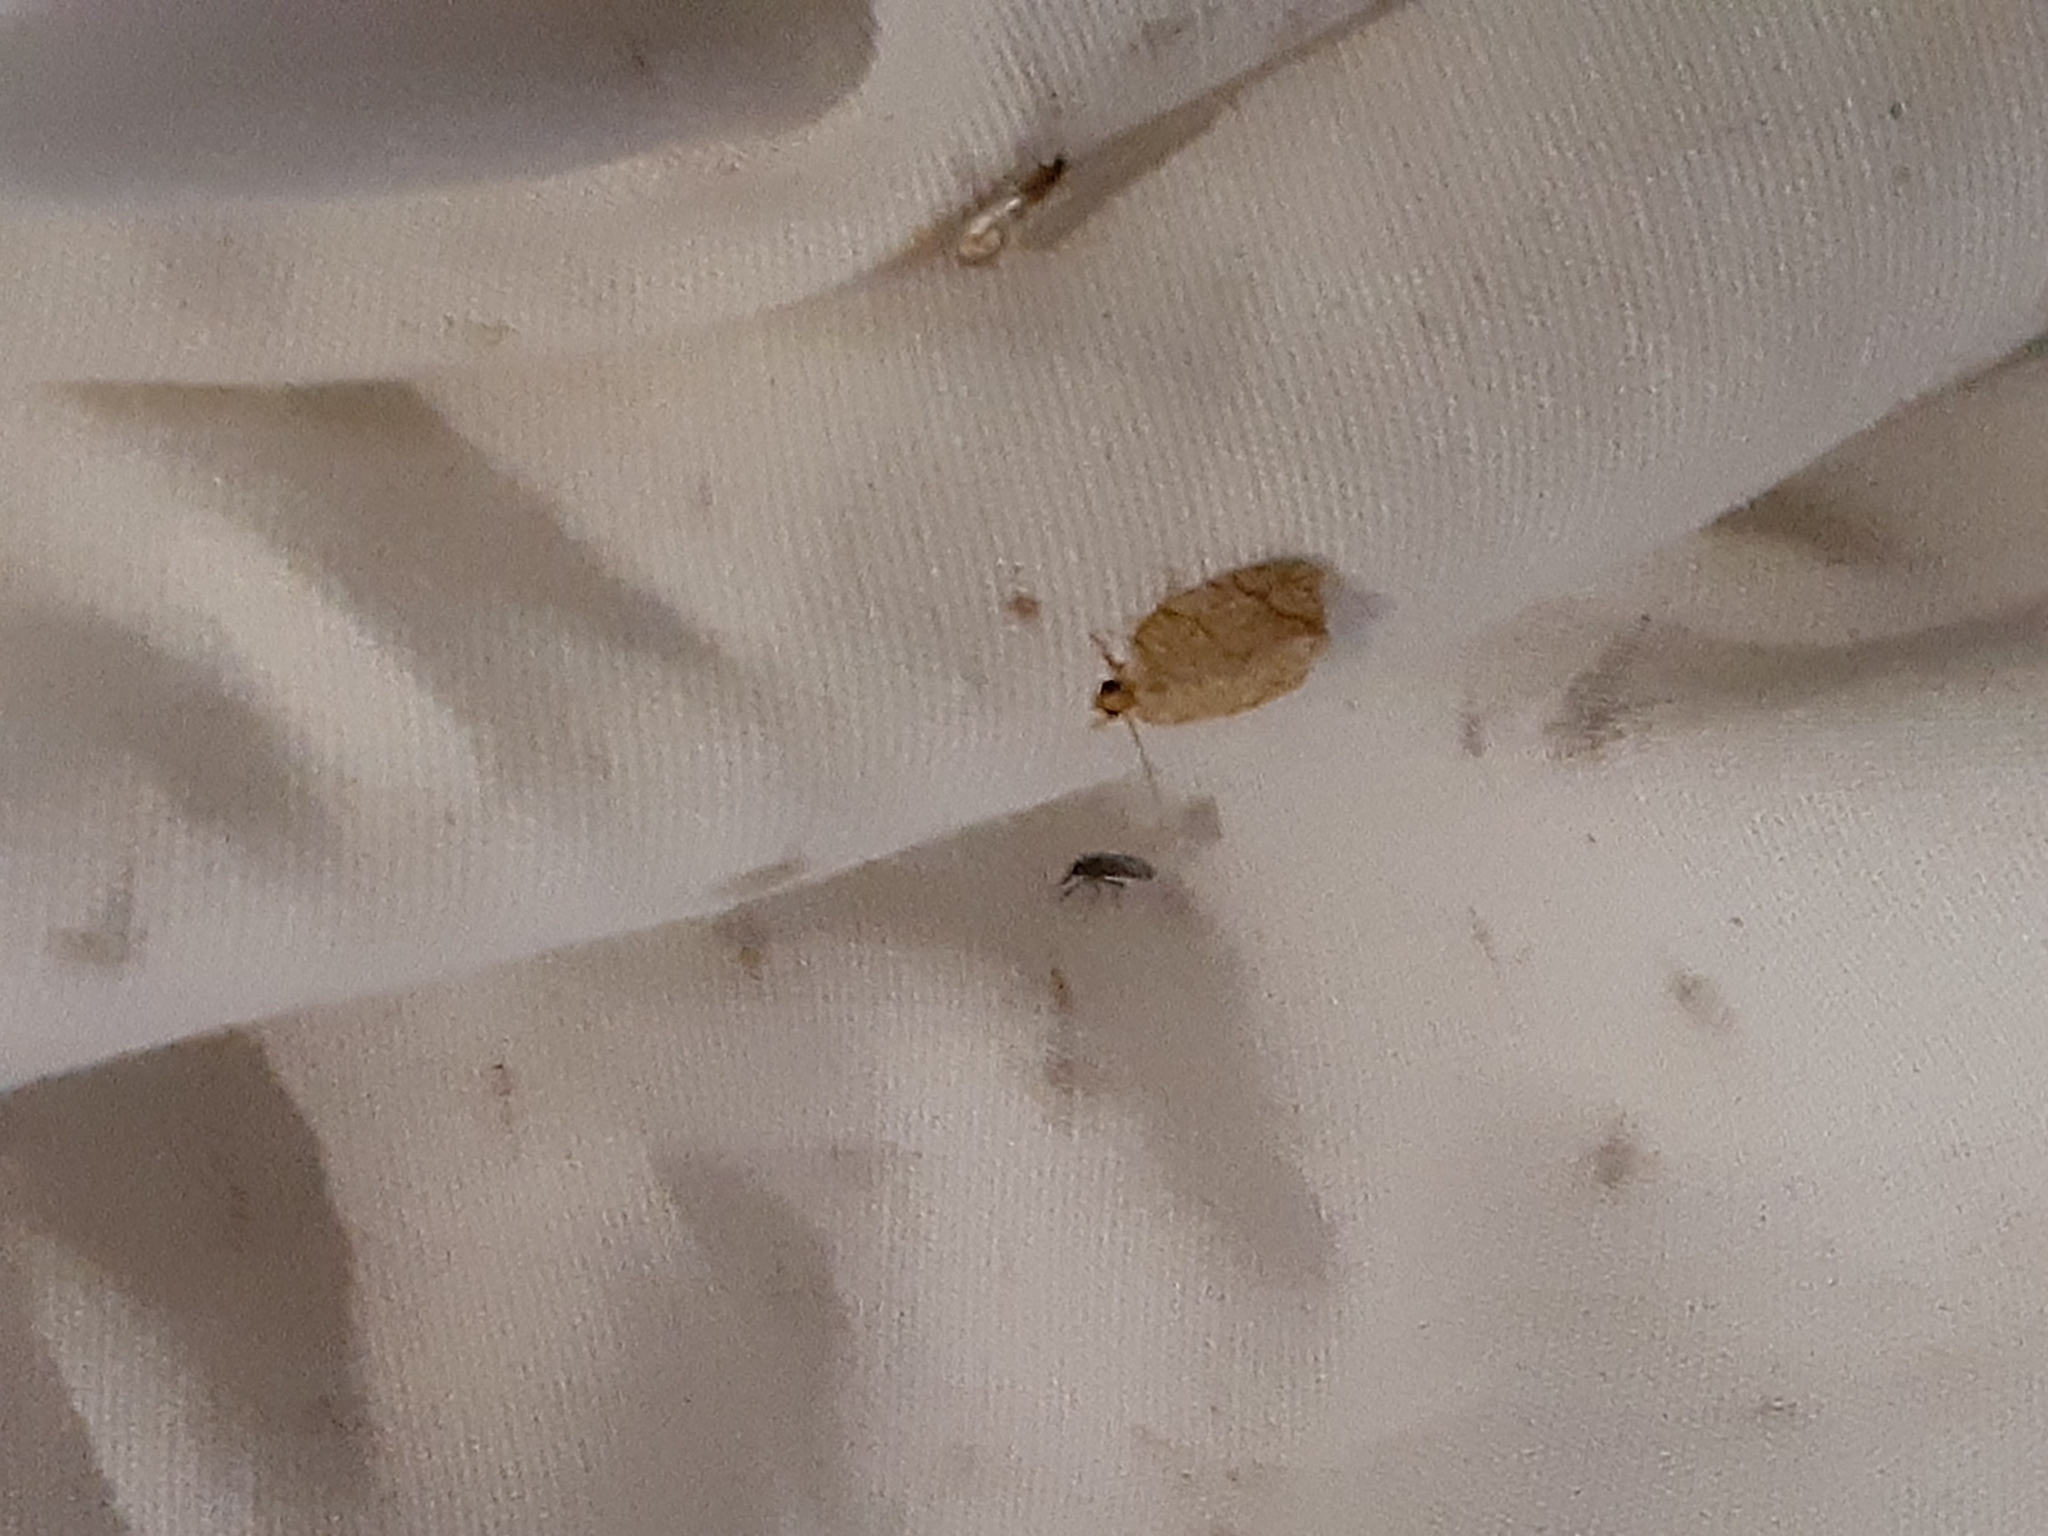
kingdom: Animalia
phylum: Arthropoda
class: Insecta
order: Lepidoptera
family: Tortricidae
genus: Argyrotaenia
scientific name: Argyrotaenia quercifoliana
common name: Yellow-winged oak leafroller moth
